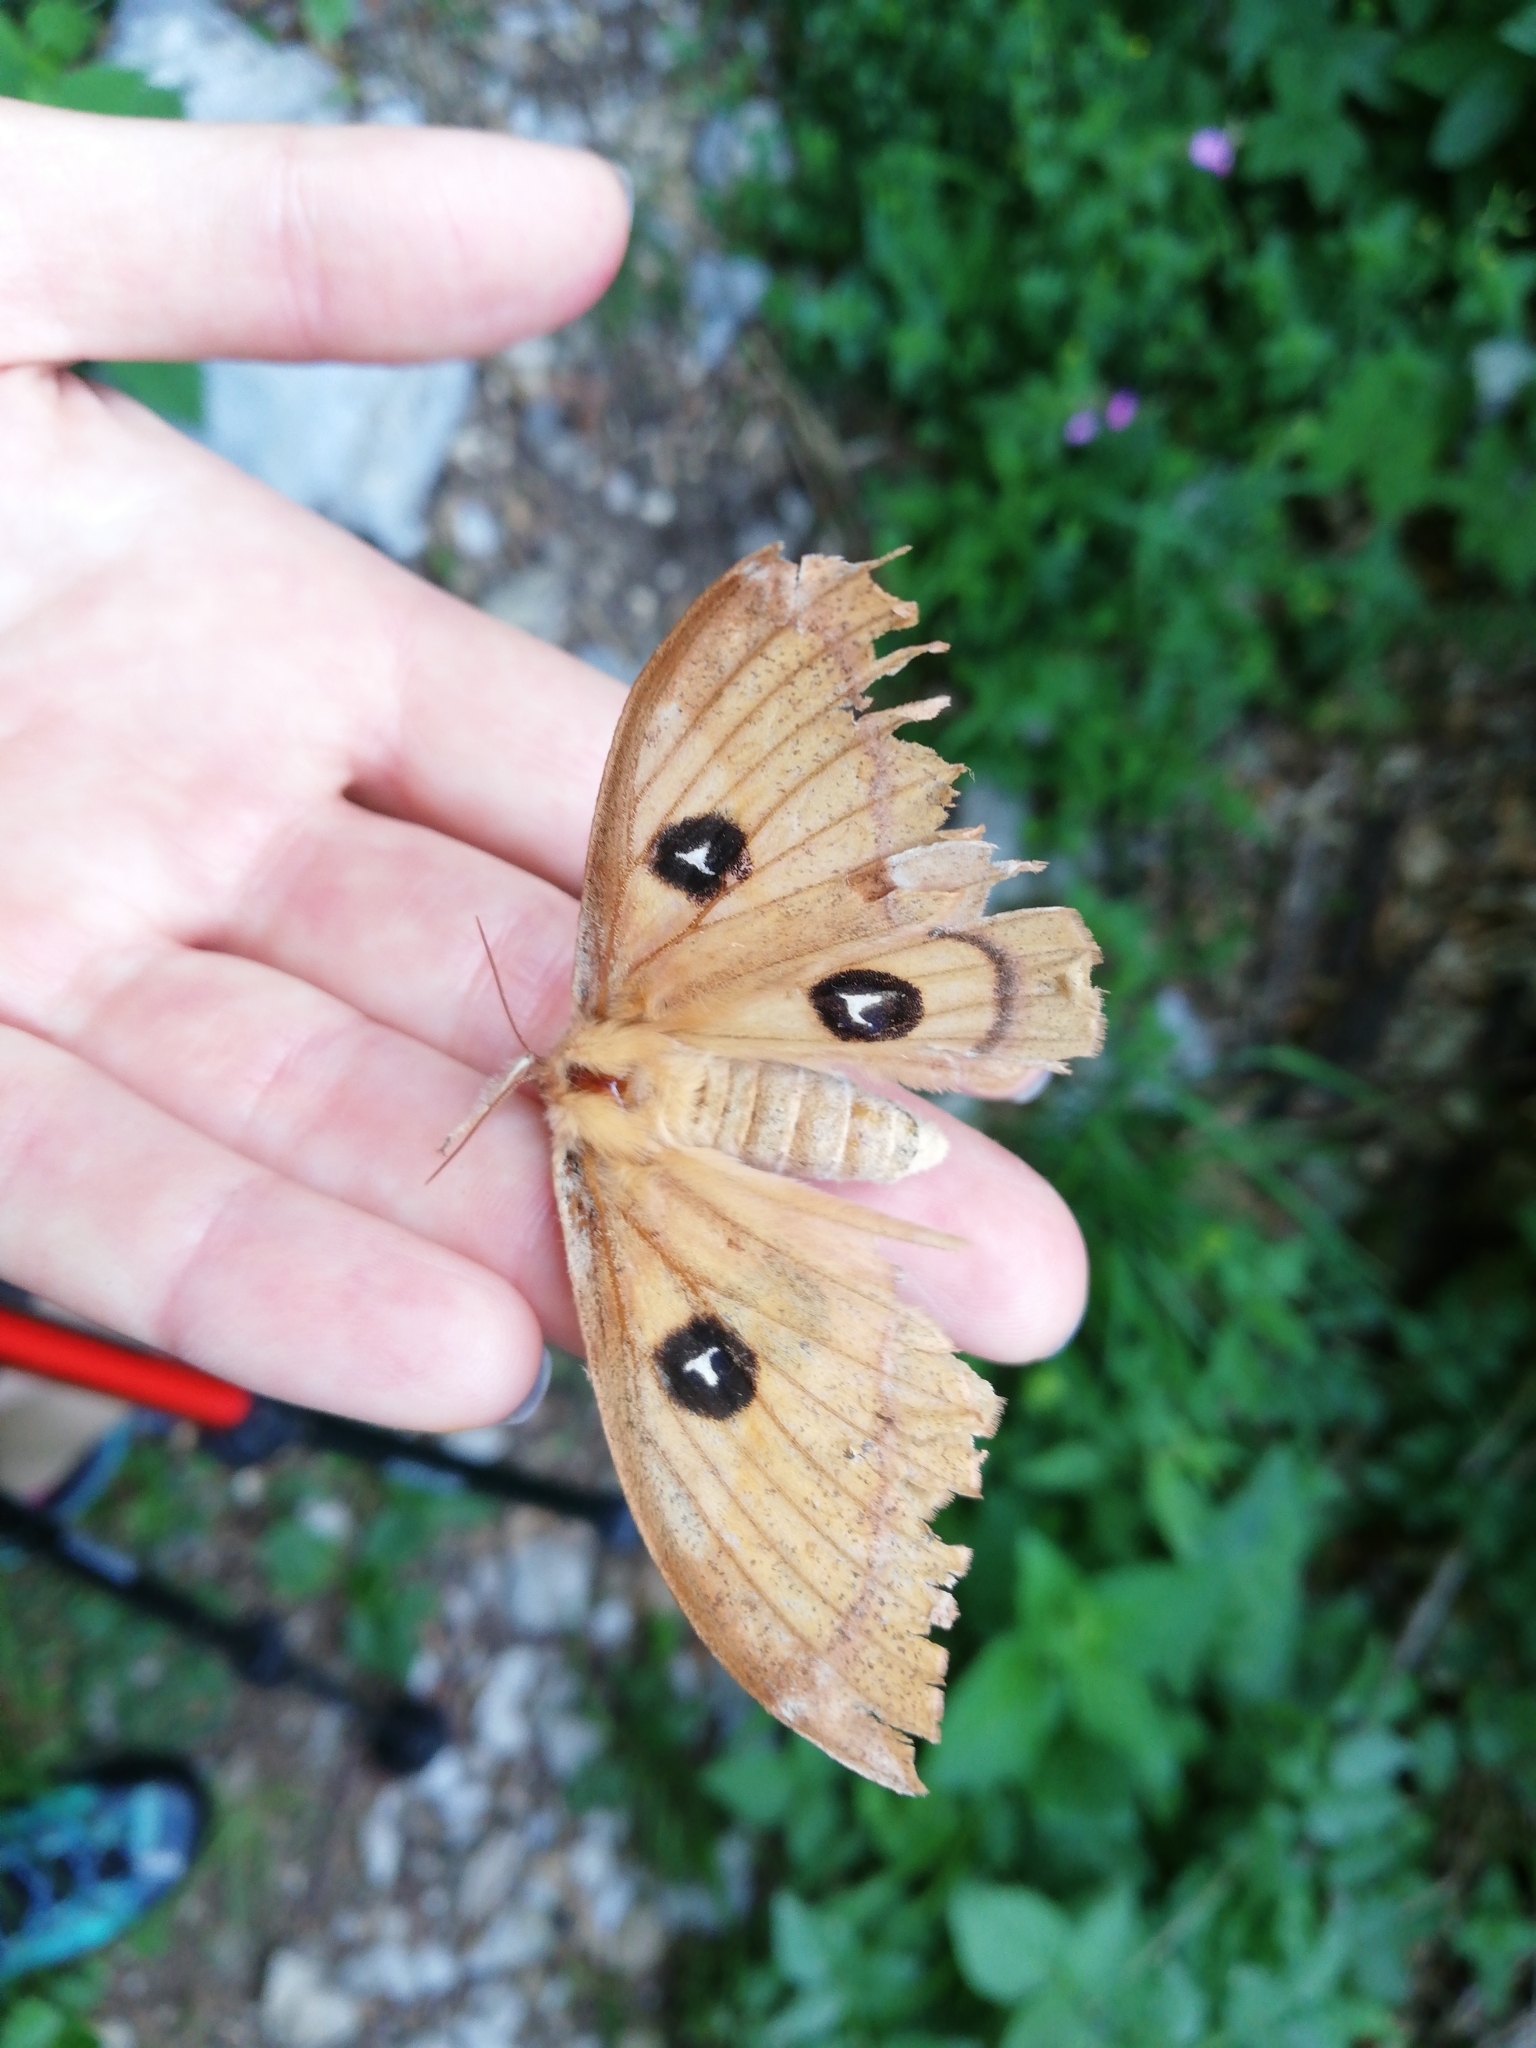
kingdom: Animalia
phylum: Arthropoda
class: Insecta
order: Lepidoptera
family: Saturniidae
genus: Aglia
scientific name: Aglia tau
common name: Tau emperor
